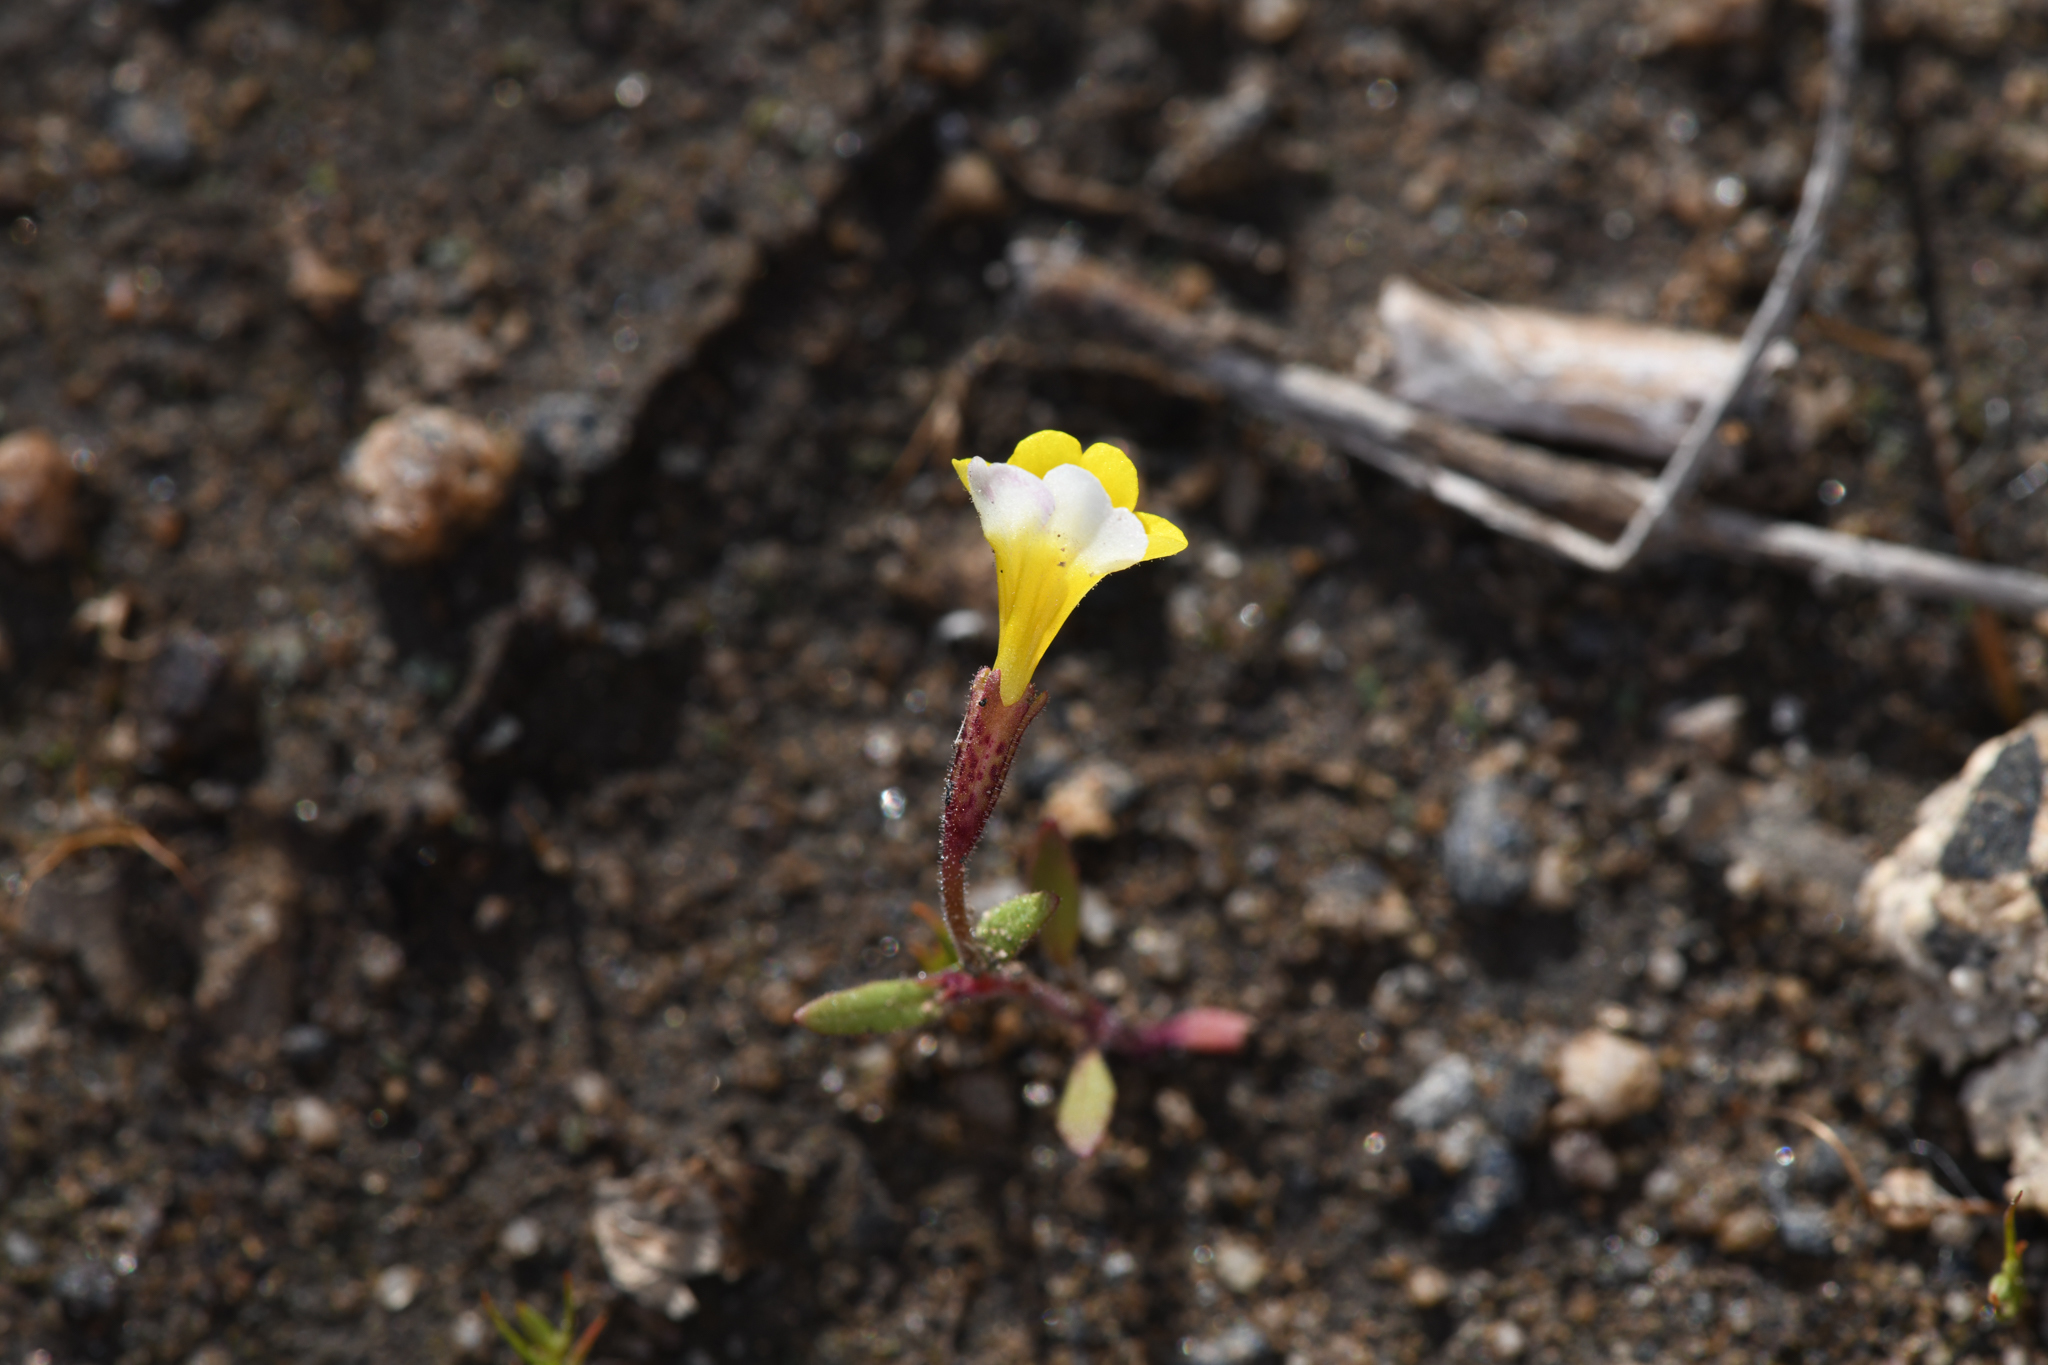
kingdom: Plantae
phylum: Tracheophyta
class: Magnoliopsida
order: Lamiales
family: Phrymaceae
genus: Erythranthe
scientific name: Erythranthe bicolor
